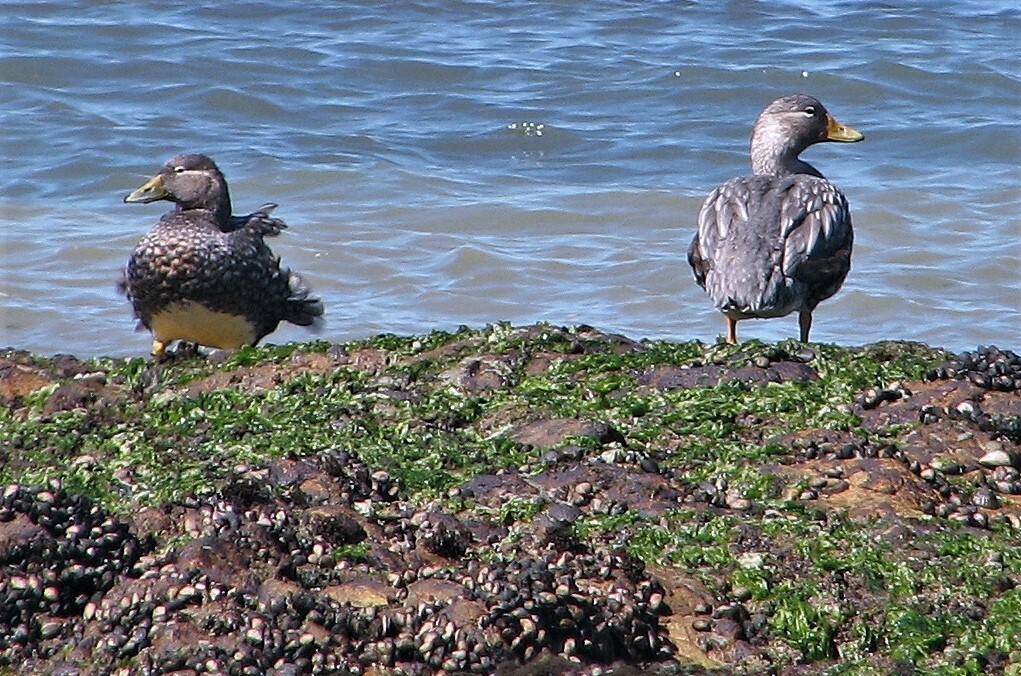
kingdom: Animalia
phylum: Chordata
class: Aves
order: Anseriformes
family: Anatidae
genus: Tachyeres
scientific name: Tachyeres patachonicus
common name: Flying steamer duck
